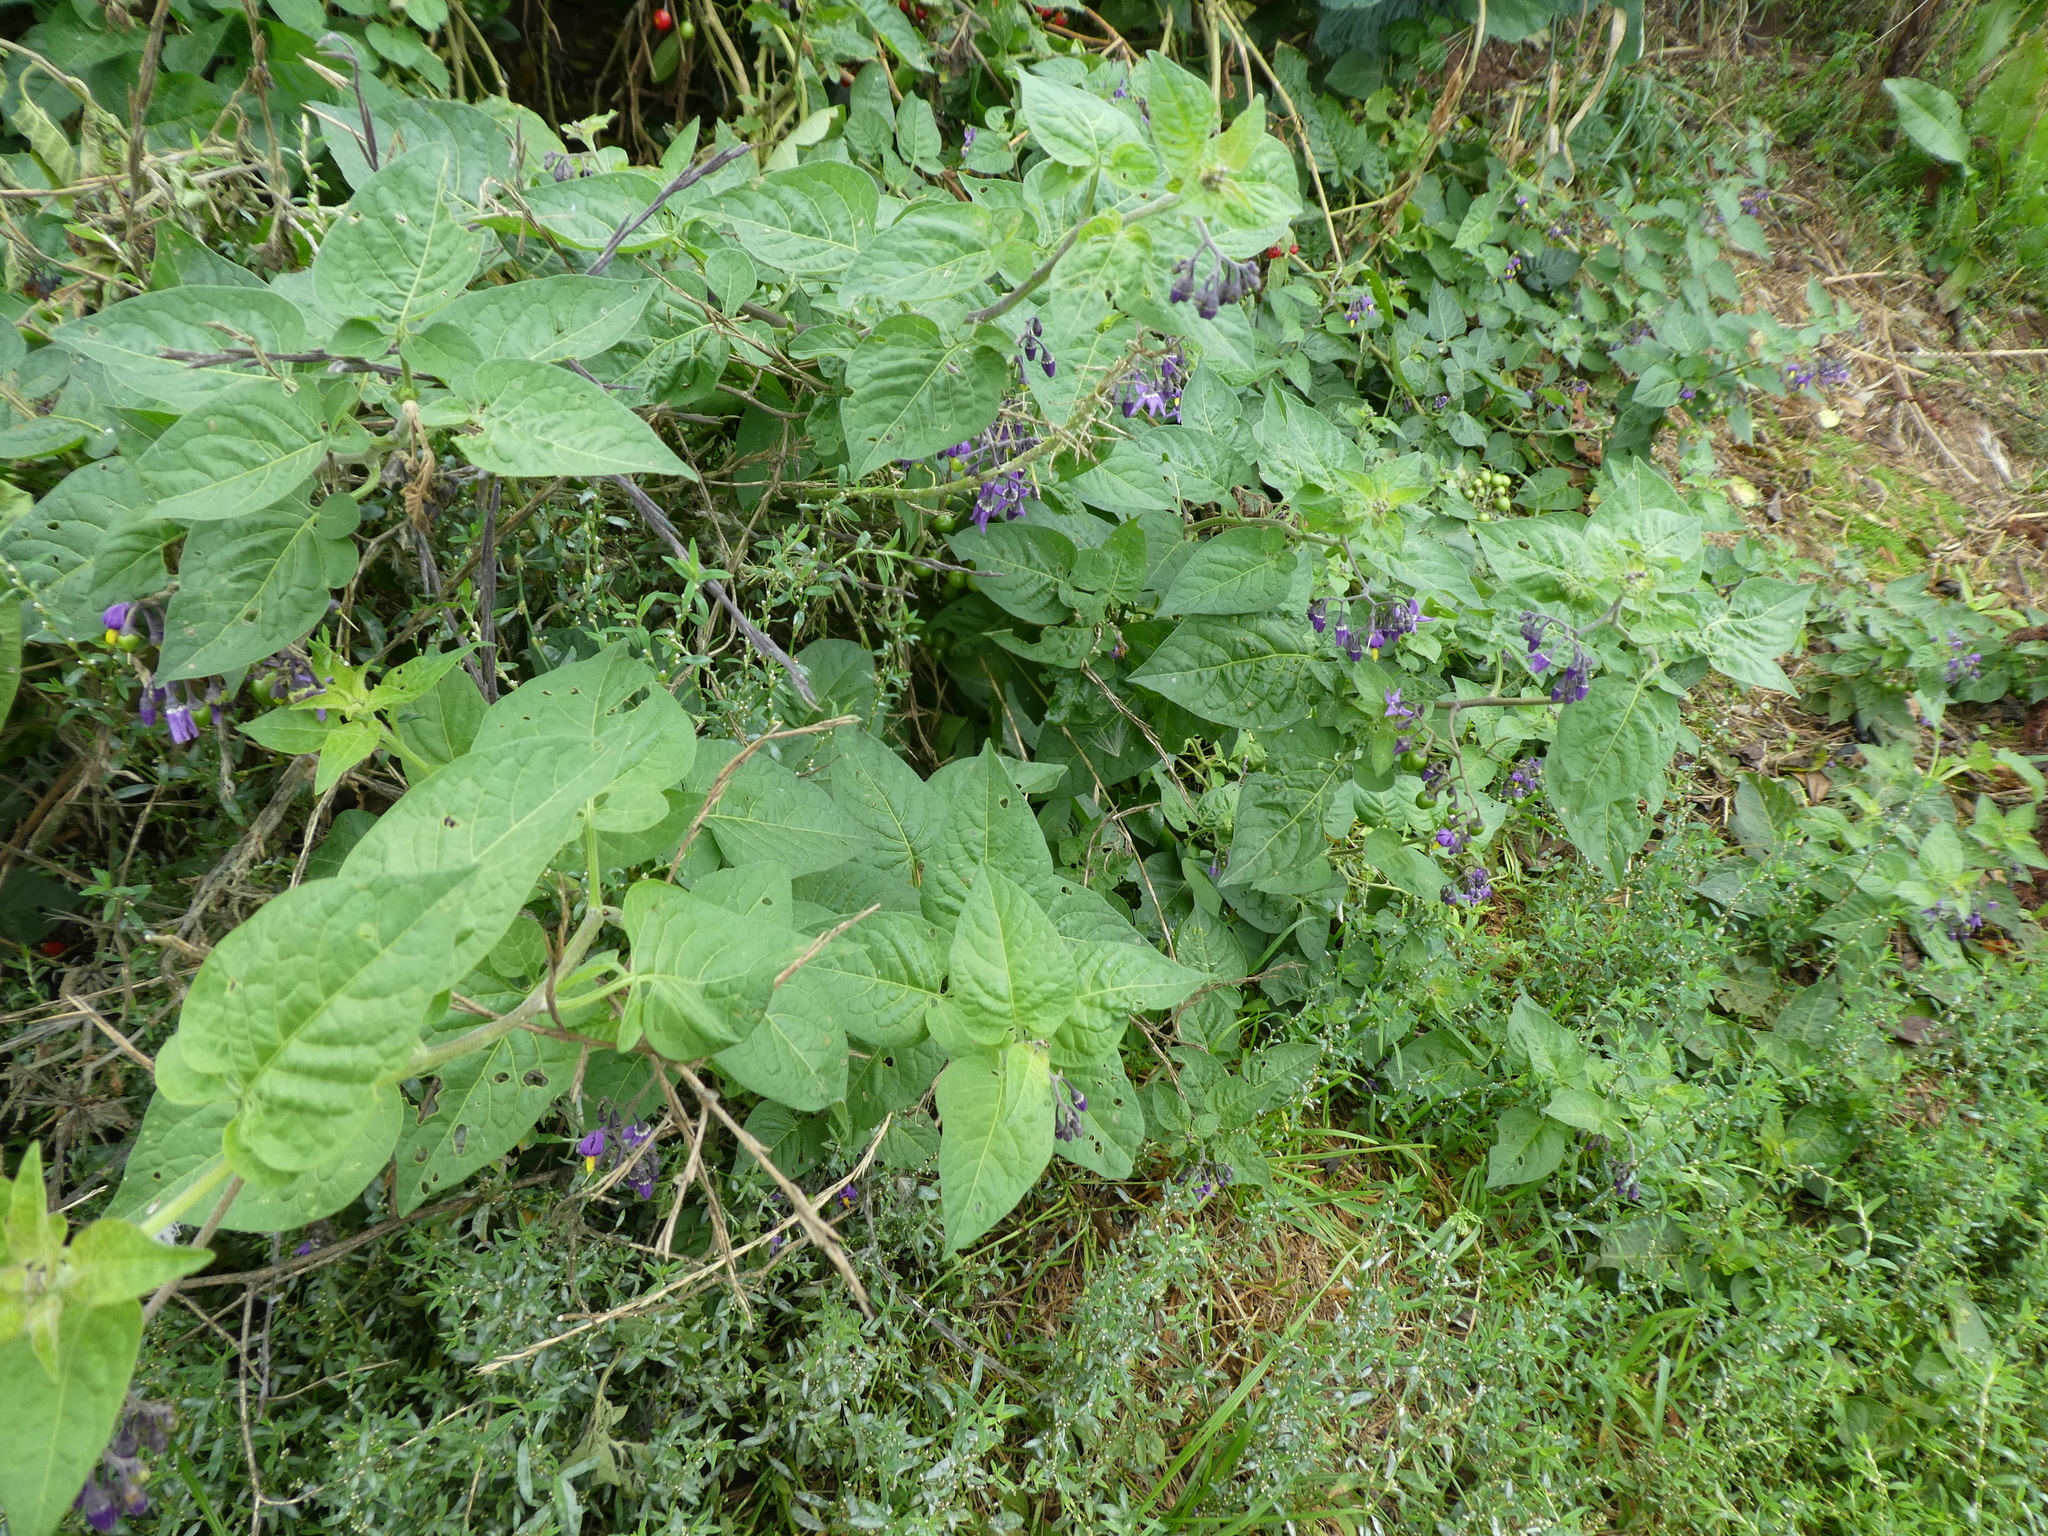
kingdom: Plantae
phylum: Tracheophyta
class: Magnoliopsida
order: Solanales
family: Solanaceae
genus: Solanum
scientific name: Solanum dulcamara
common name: Climbing nightshade
